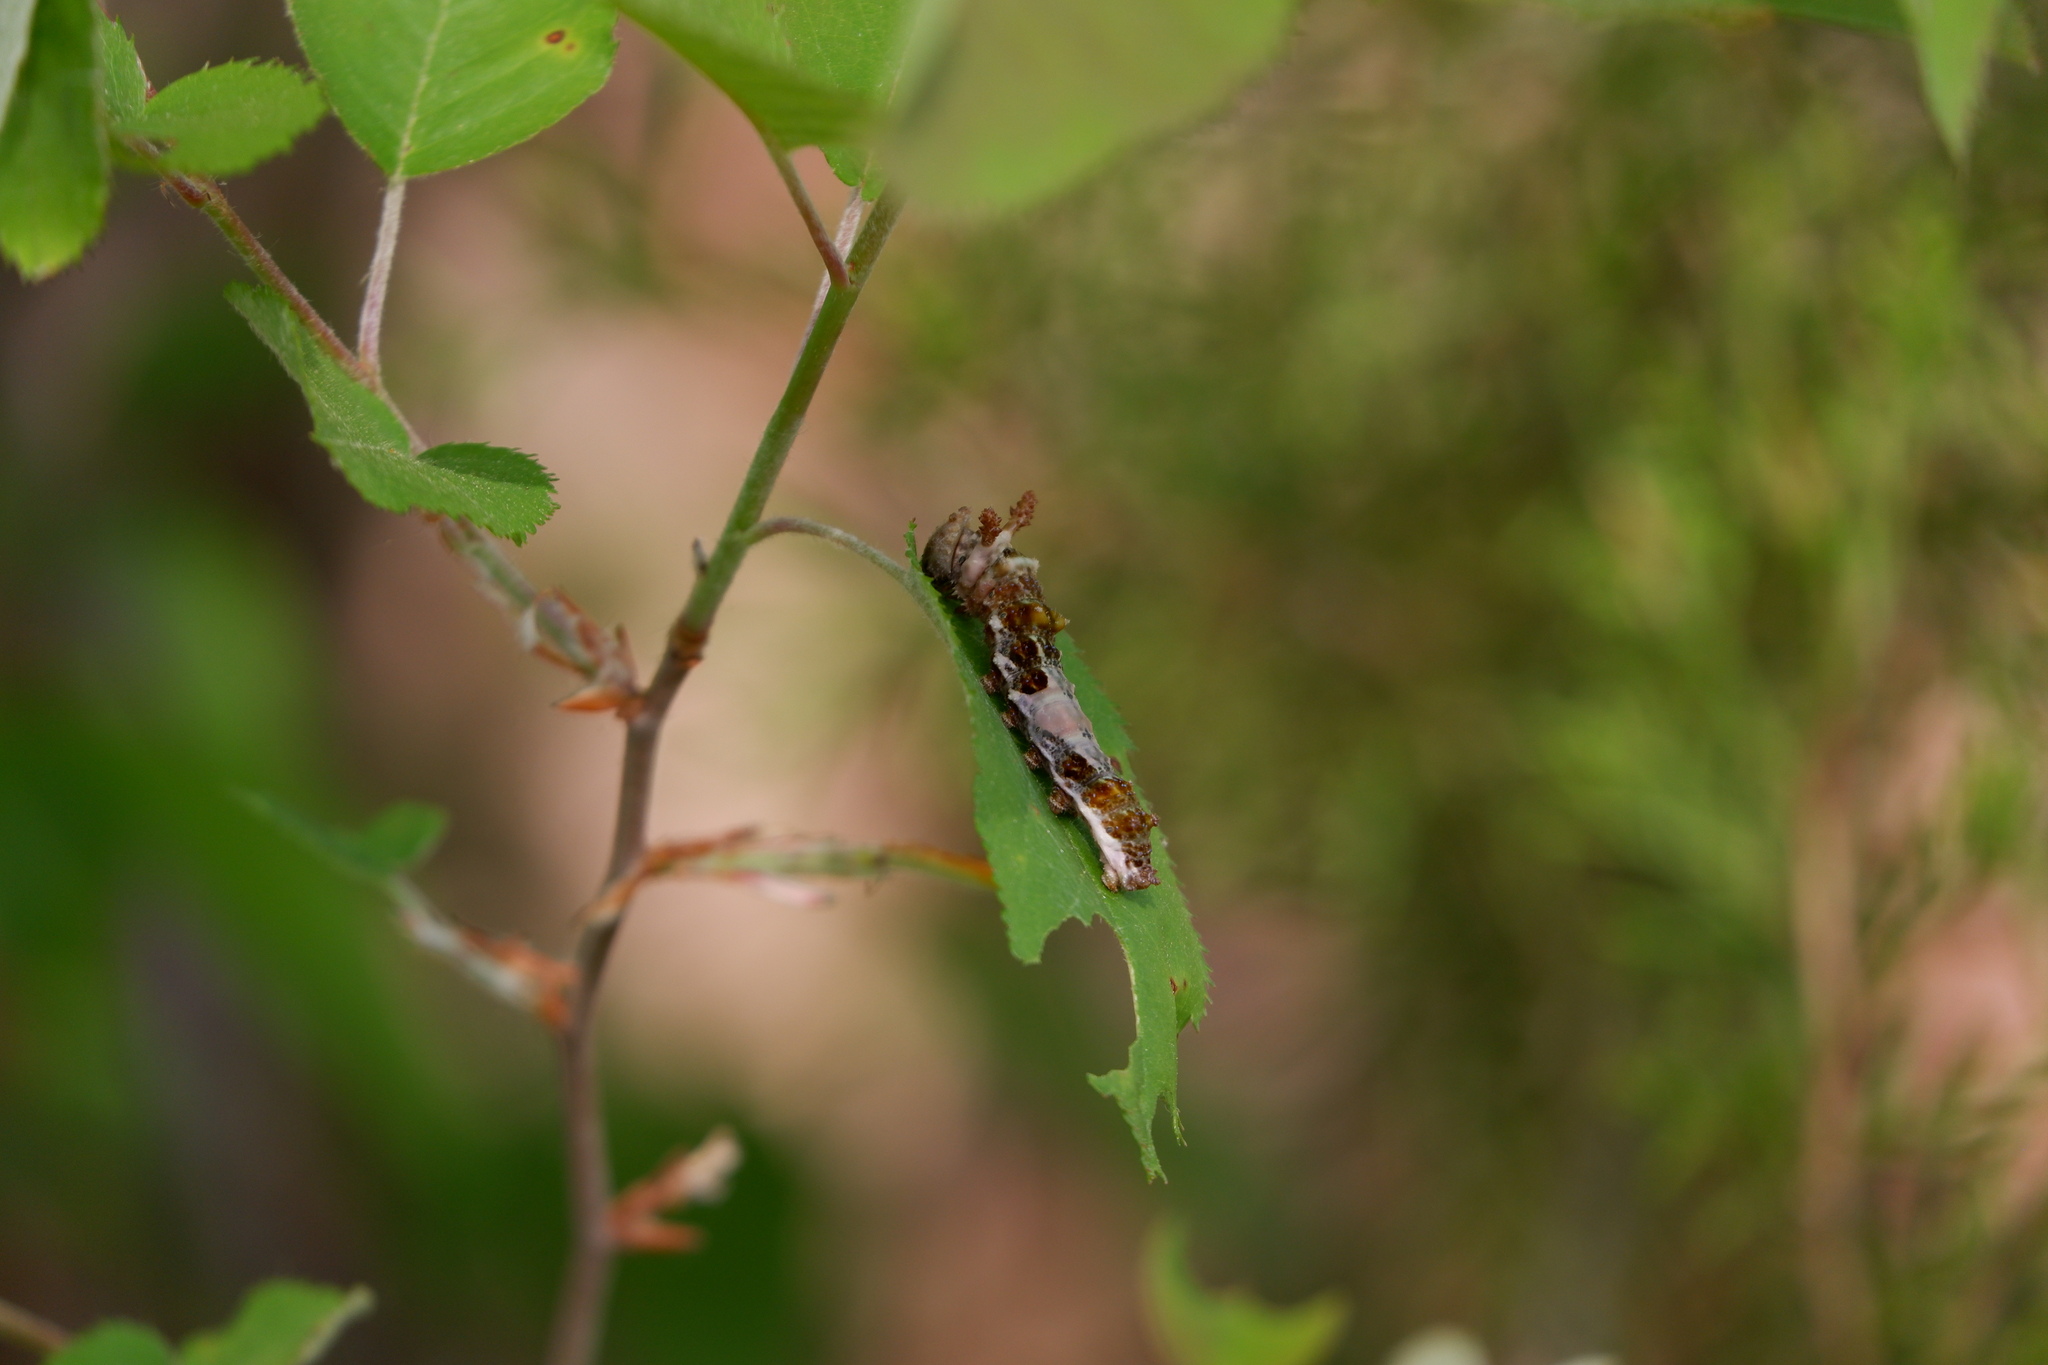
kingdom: Animalia
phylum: Arthropoda
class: Insecta
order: Lepidoptera
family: Nymphalidae
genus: Limenitis
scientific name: Limenitis astyanax
